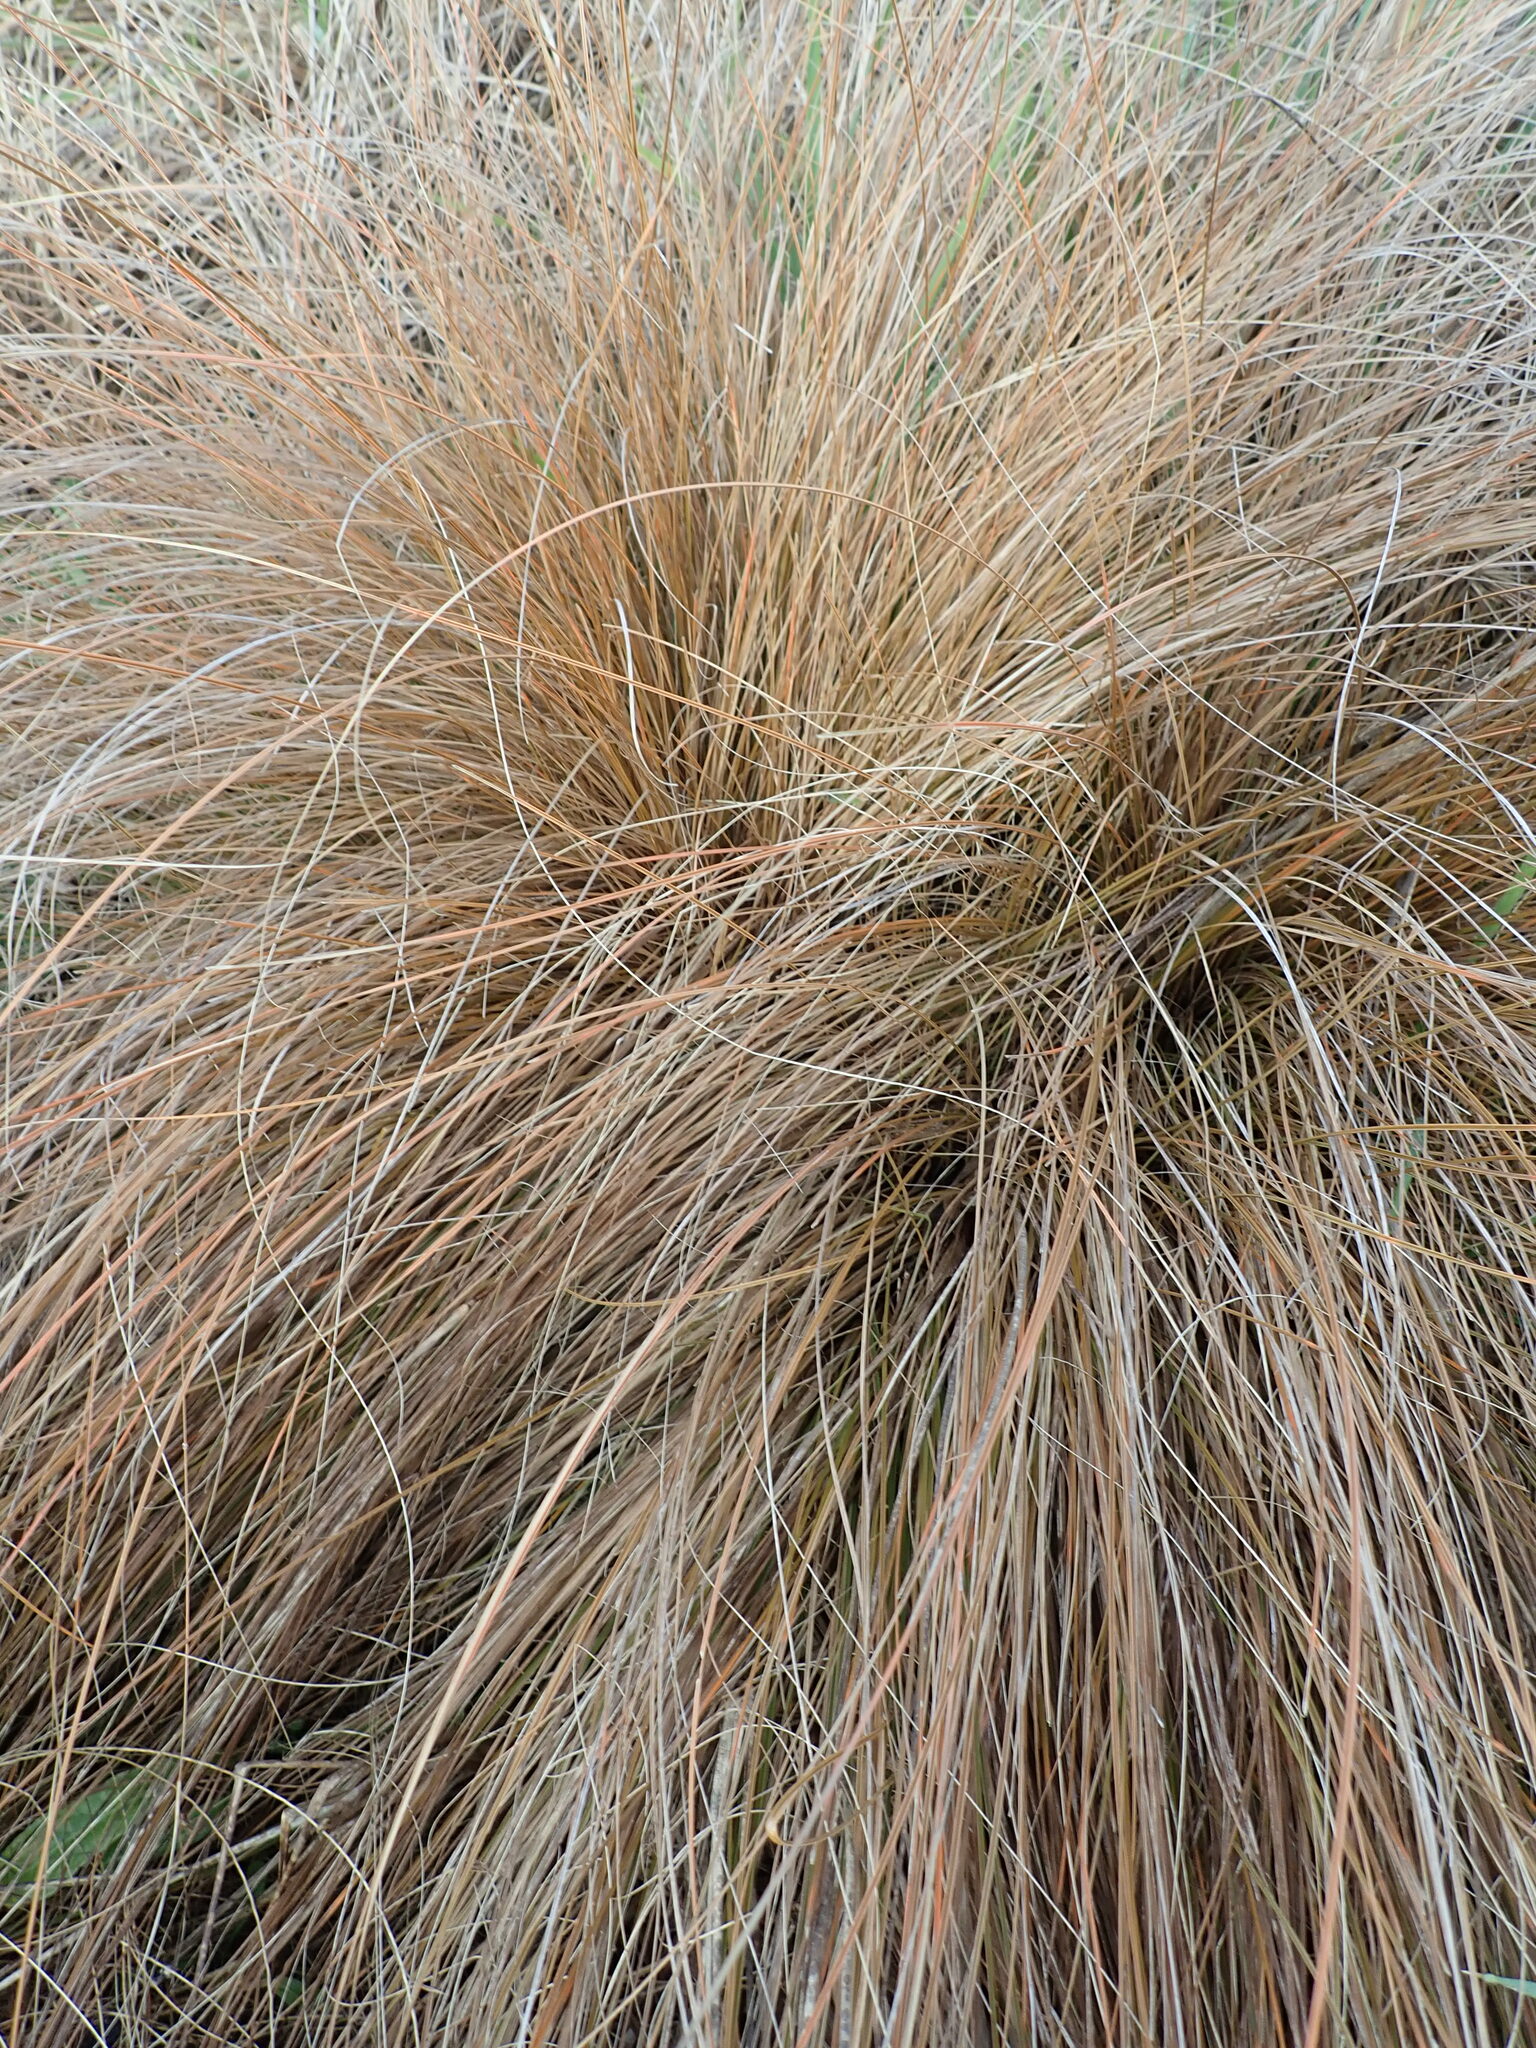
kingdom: Plantae
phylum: Tracheophyta
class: Liliopsida
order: Poales
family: Cyperaceae
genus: Carex
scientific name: Carex testacea
